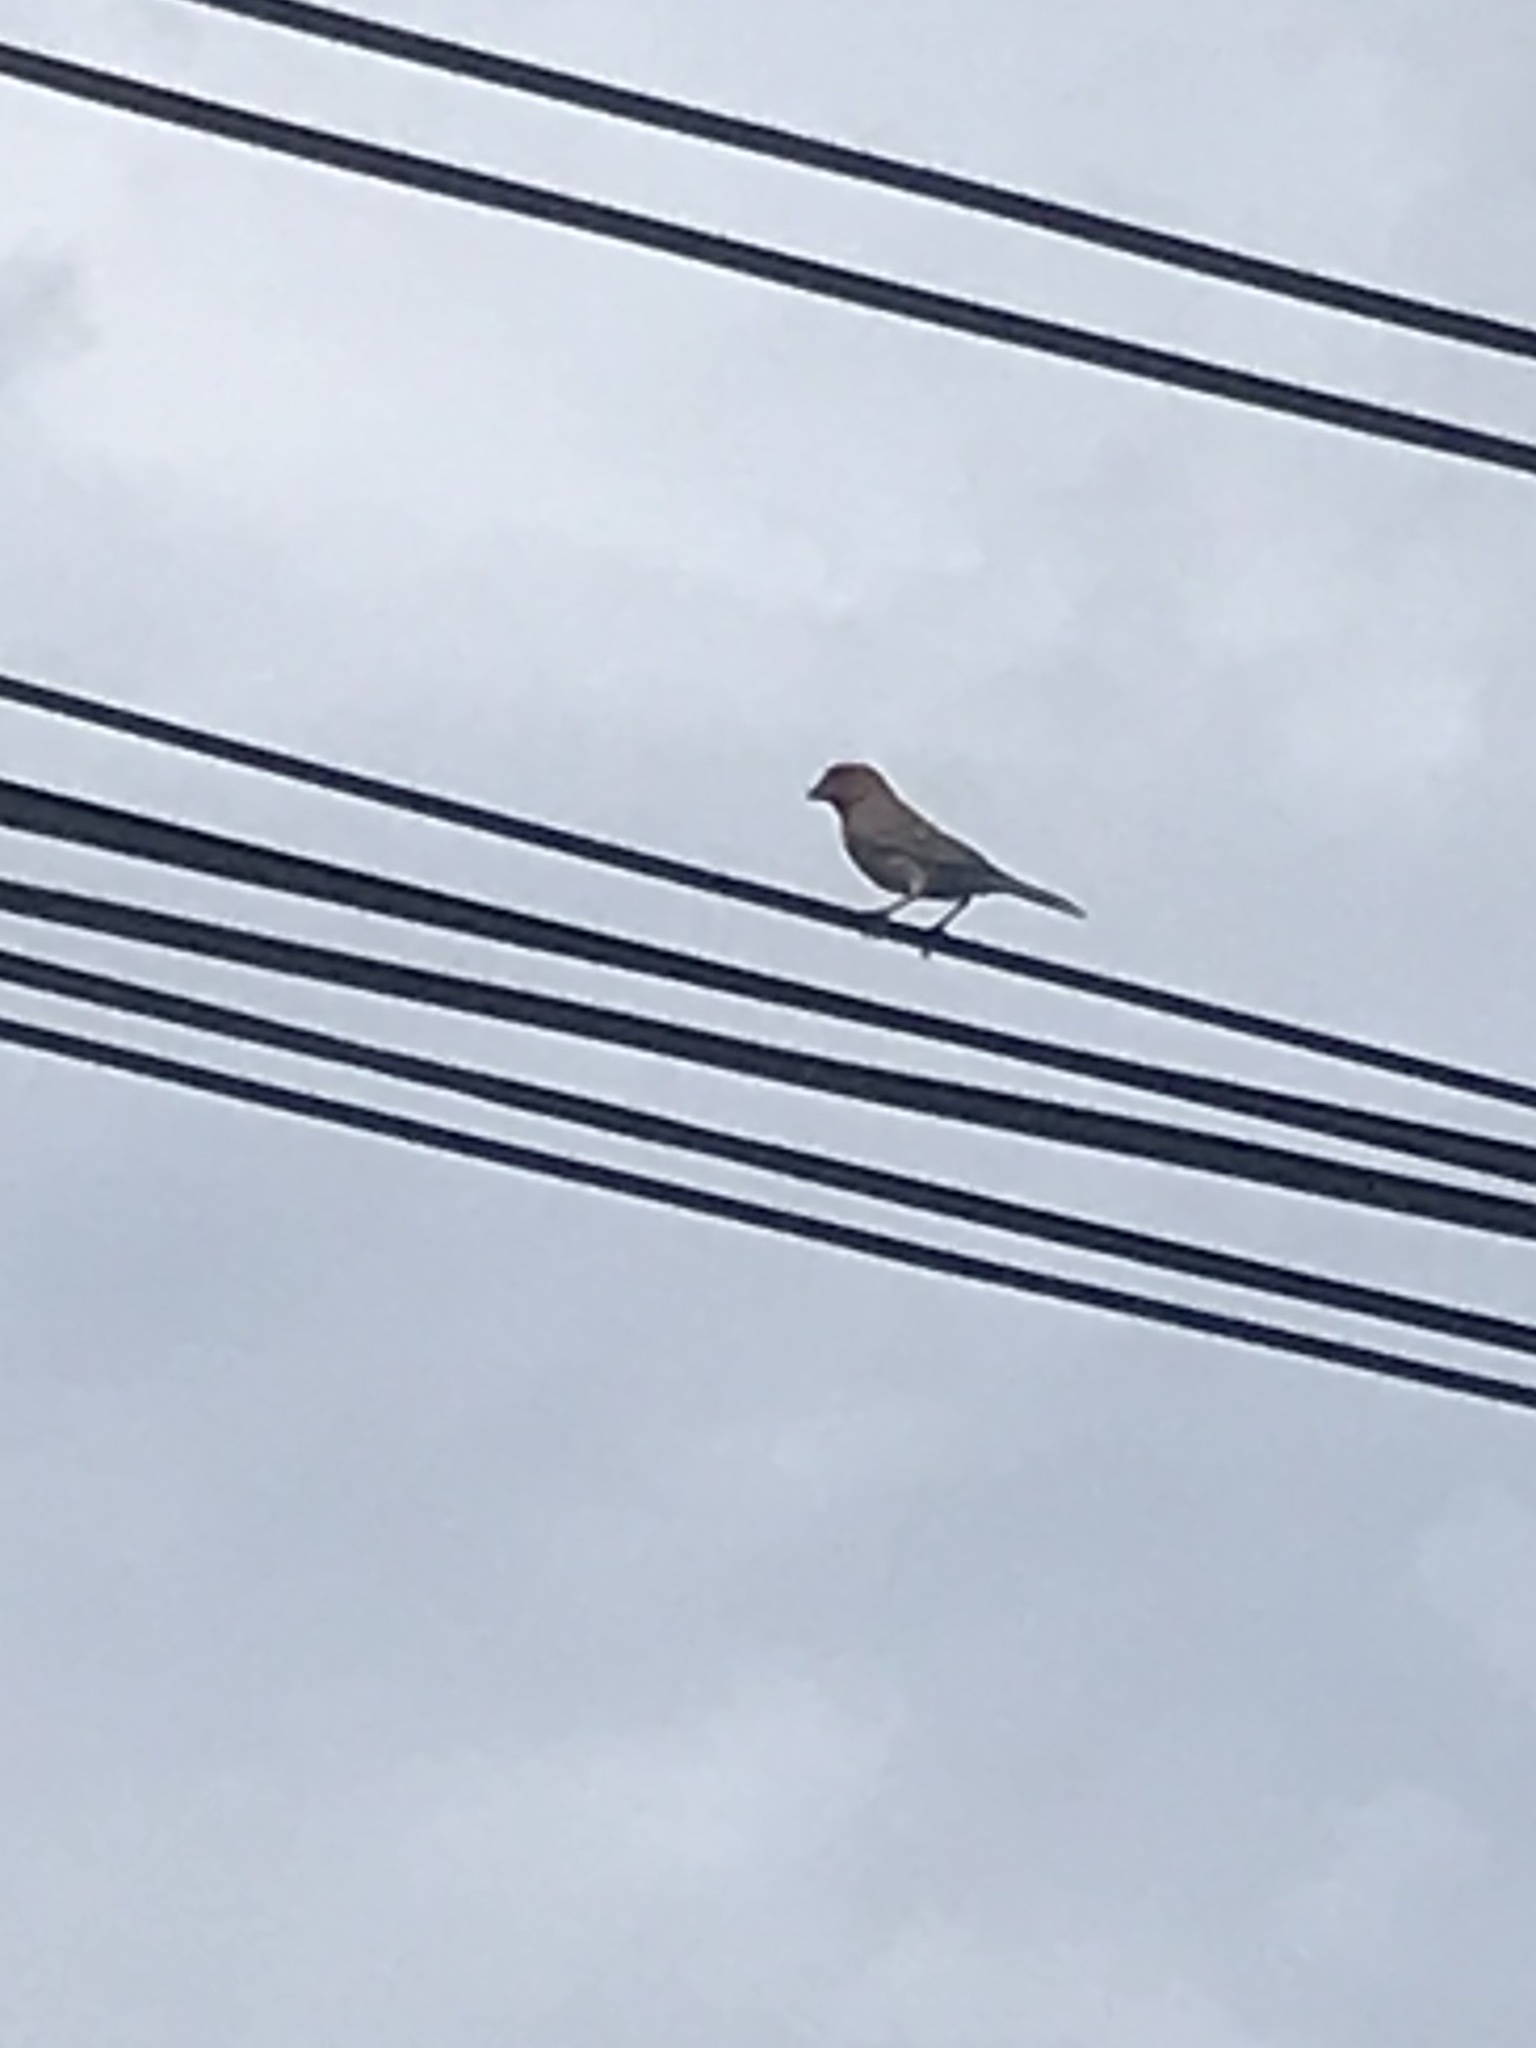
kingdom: Animalia
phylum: Chordata
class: Aves
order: Passeriformes
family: Fringillidae
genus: Haemorhous
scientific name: Haemorhous mexicanus
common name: House finch
